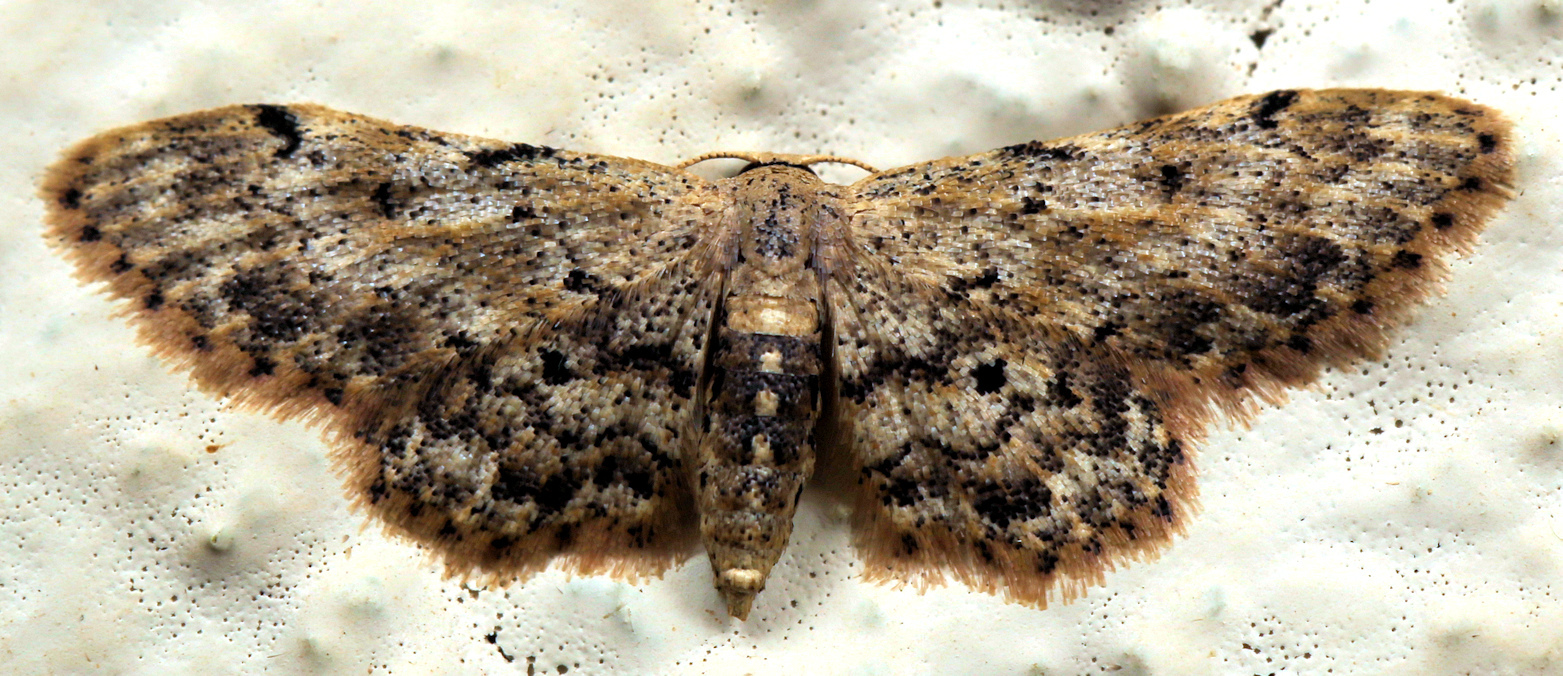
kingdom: Animalia
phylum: Arthropoda
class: Insecta
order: Lepidoptera
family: Geometridae
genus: Idaea
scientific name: Idaea fumilinea
